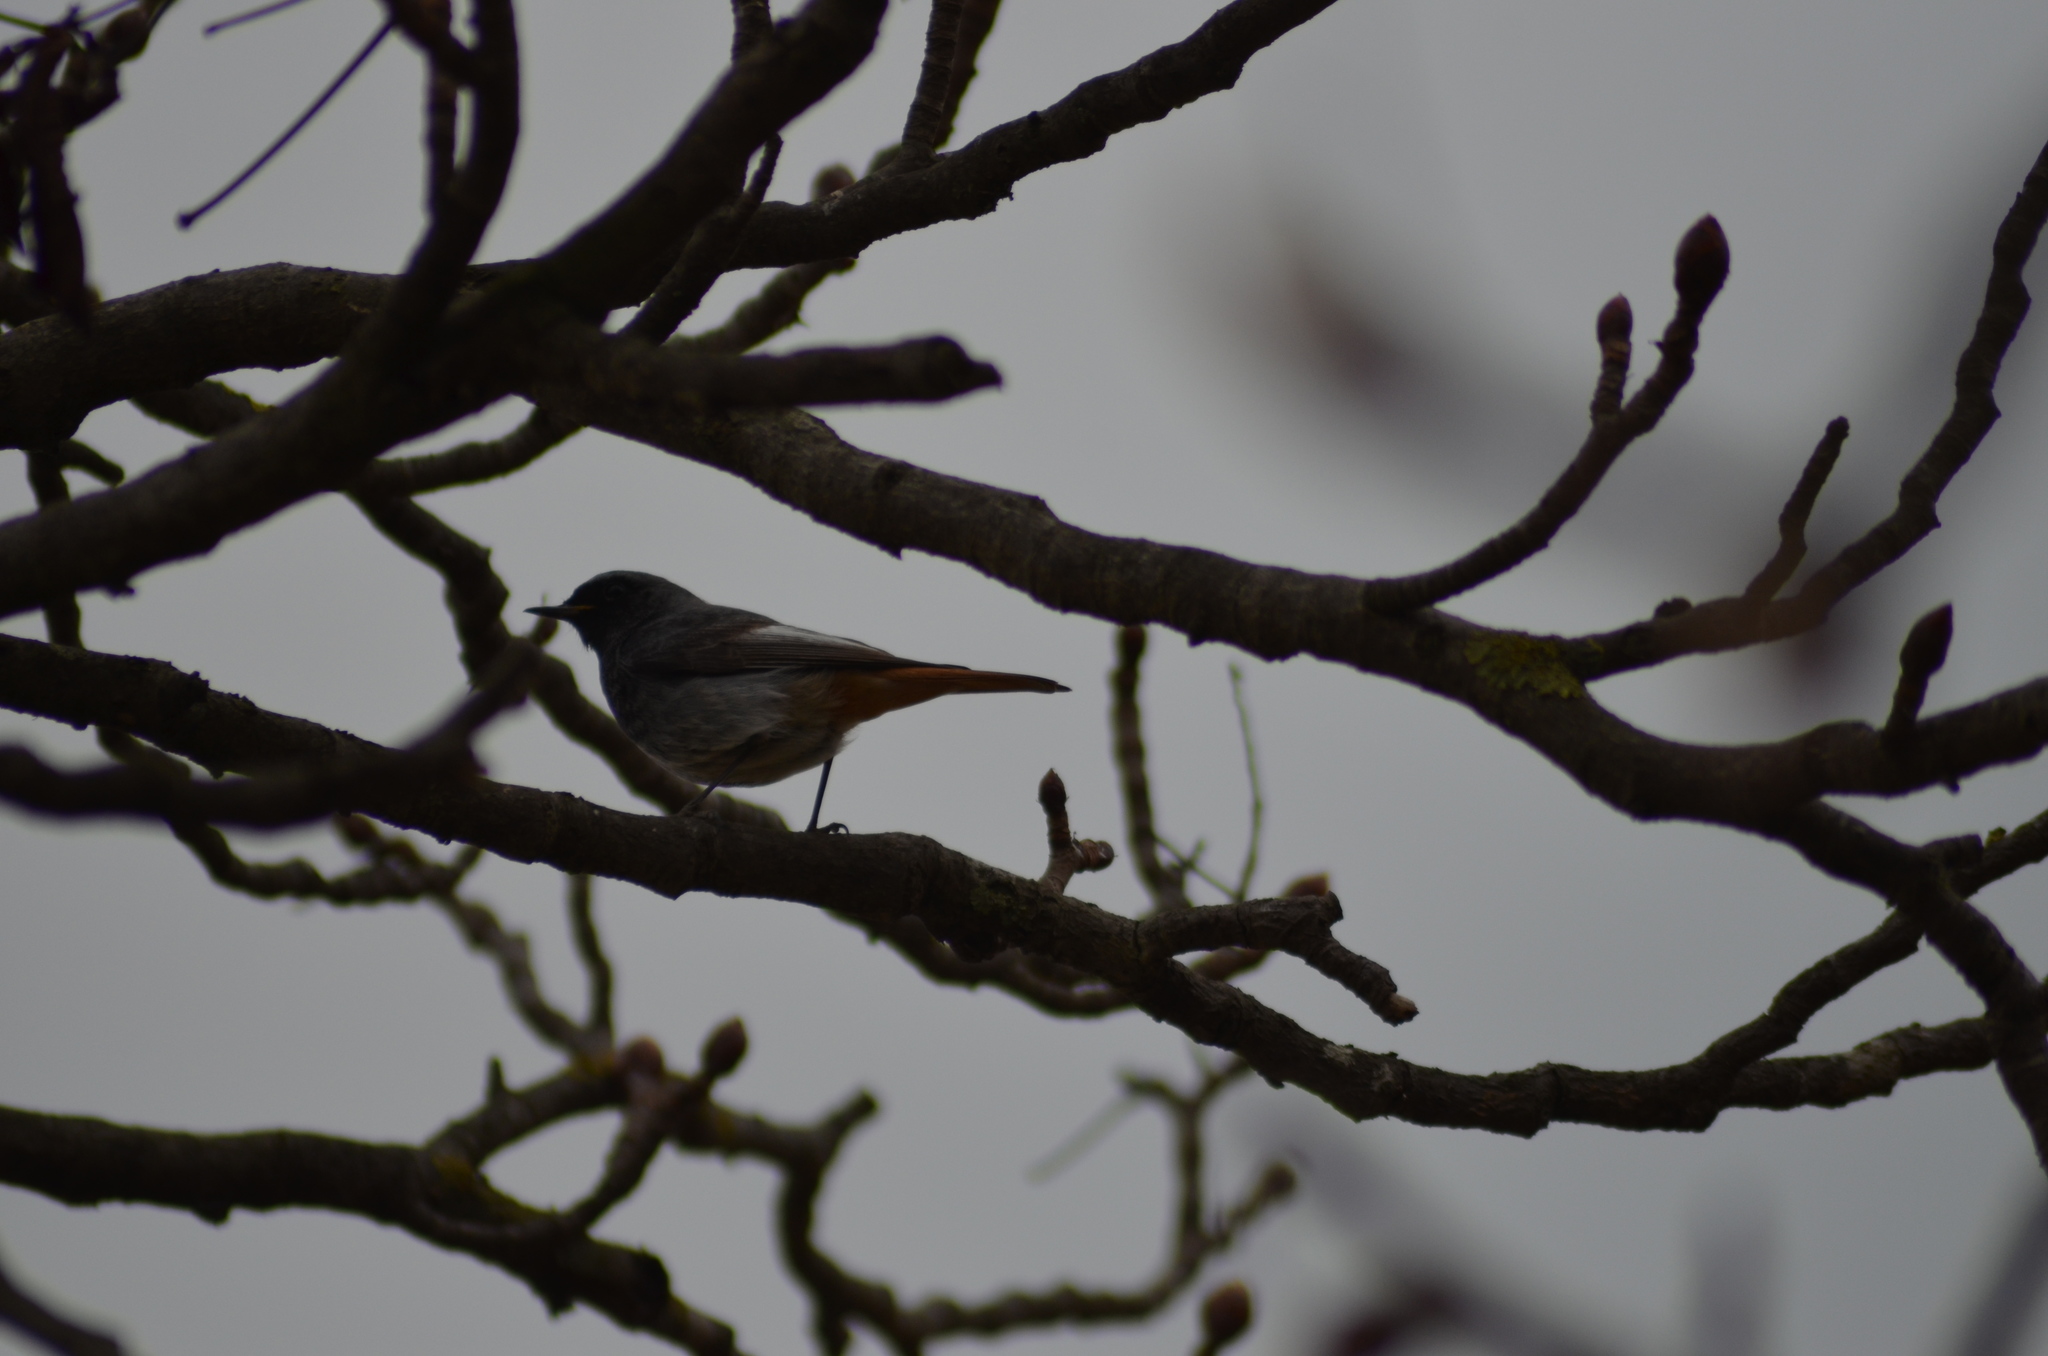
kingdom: Animalia
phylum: Chordata
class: Aves
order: Passeriformes
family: Muscicapidae
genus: Phoenicurus
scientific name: Phoenicurus ochruros
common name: Black redstart
